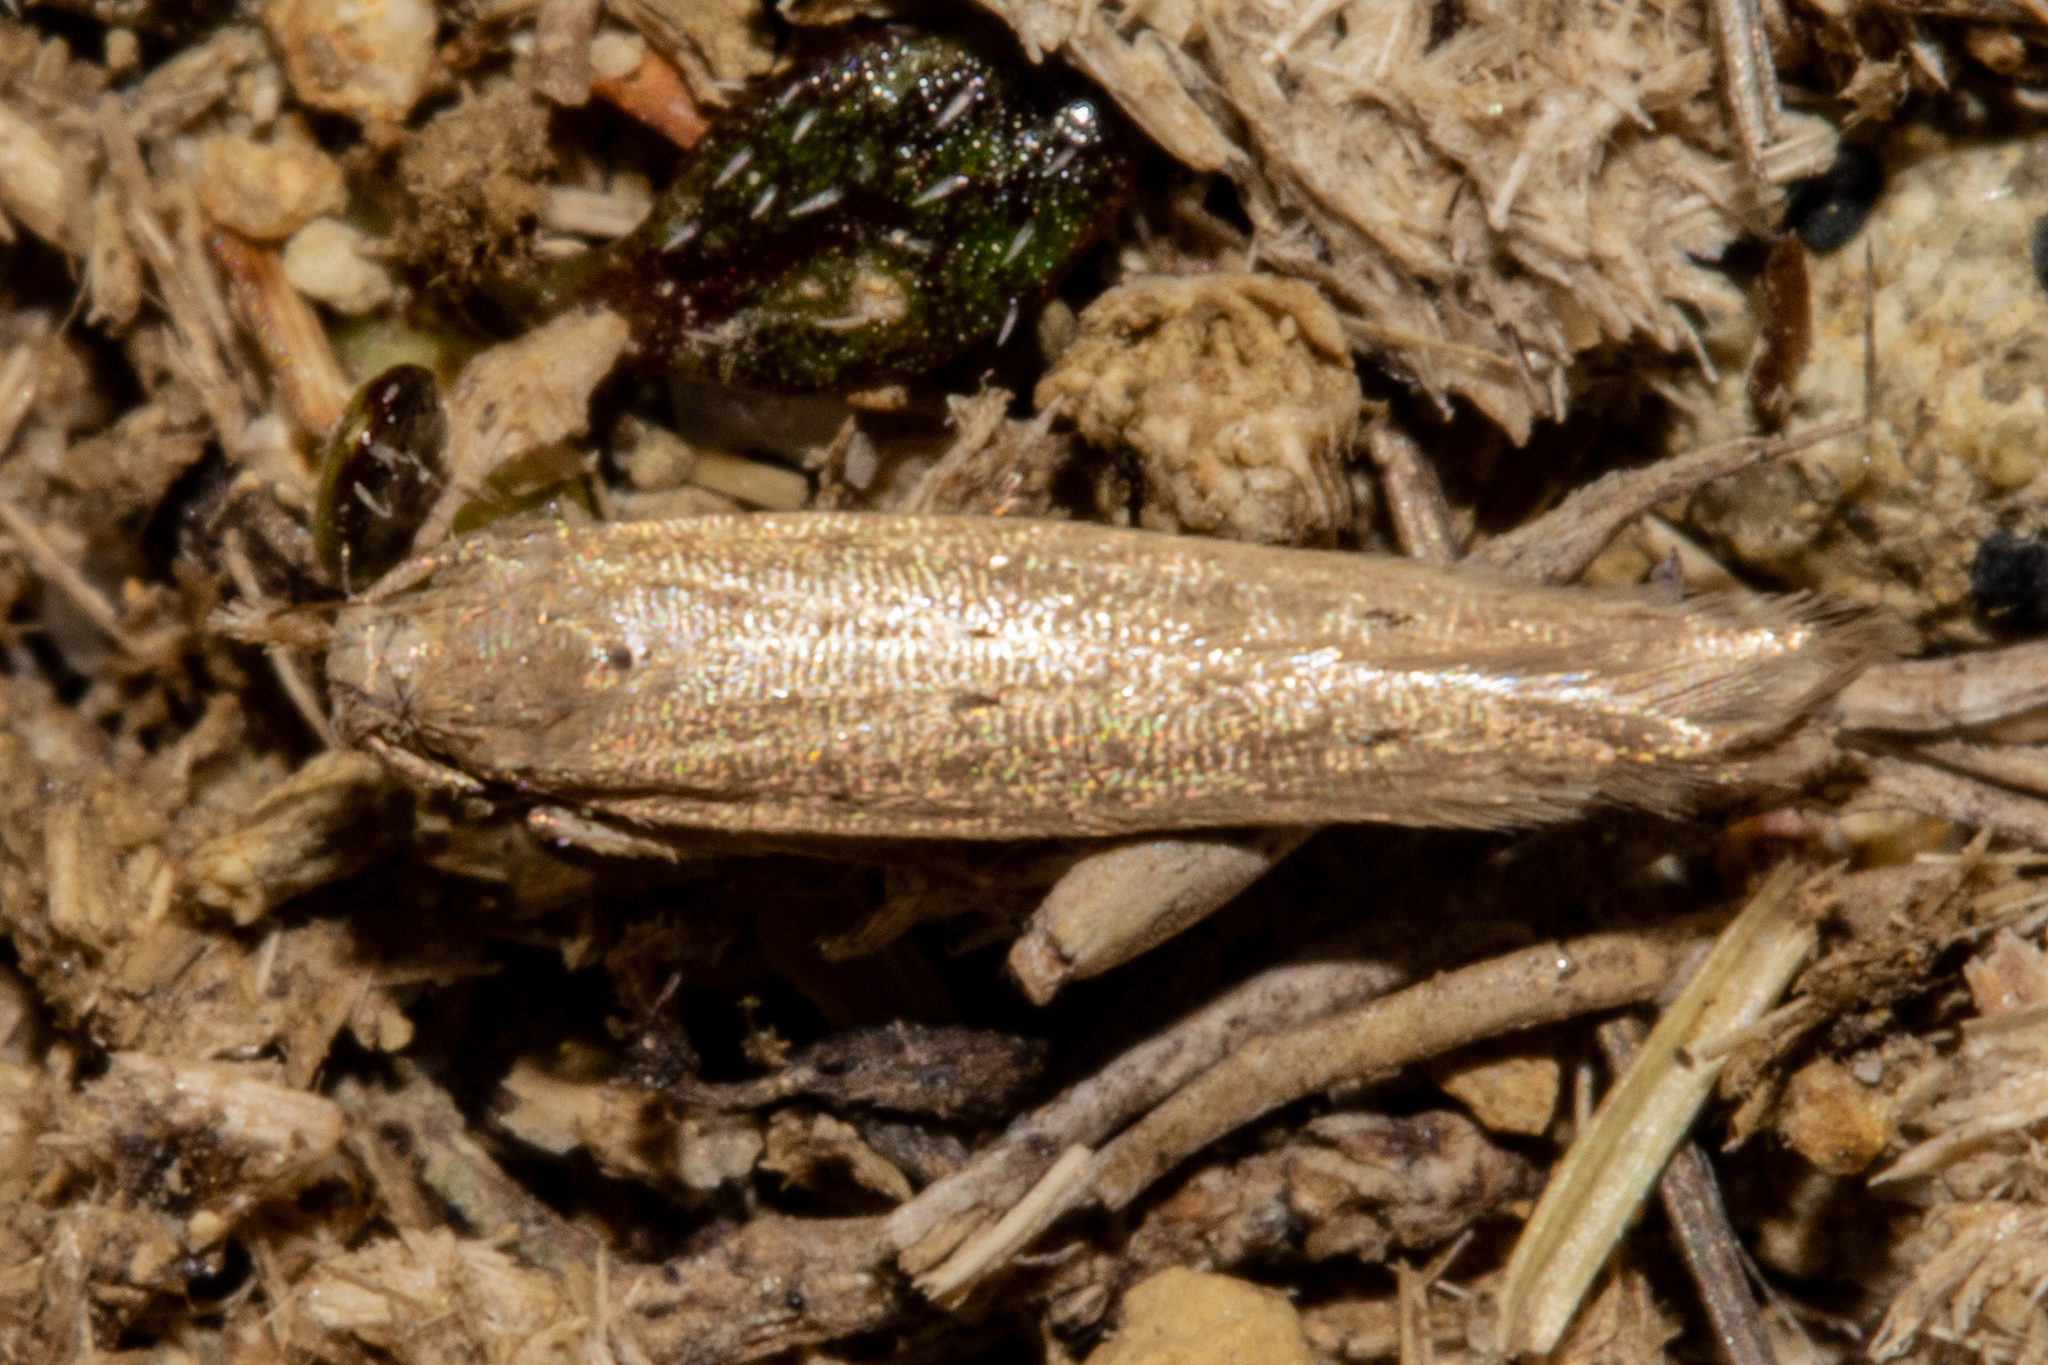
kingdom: Animalia
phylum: Arthropoda
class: Insecta
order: Lepidoptera
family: Gelechiidae
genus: Epiphthora
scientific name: Epiphthora calamogonus
